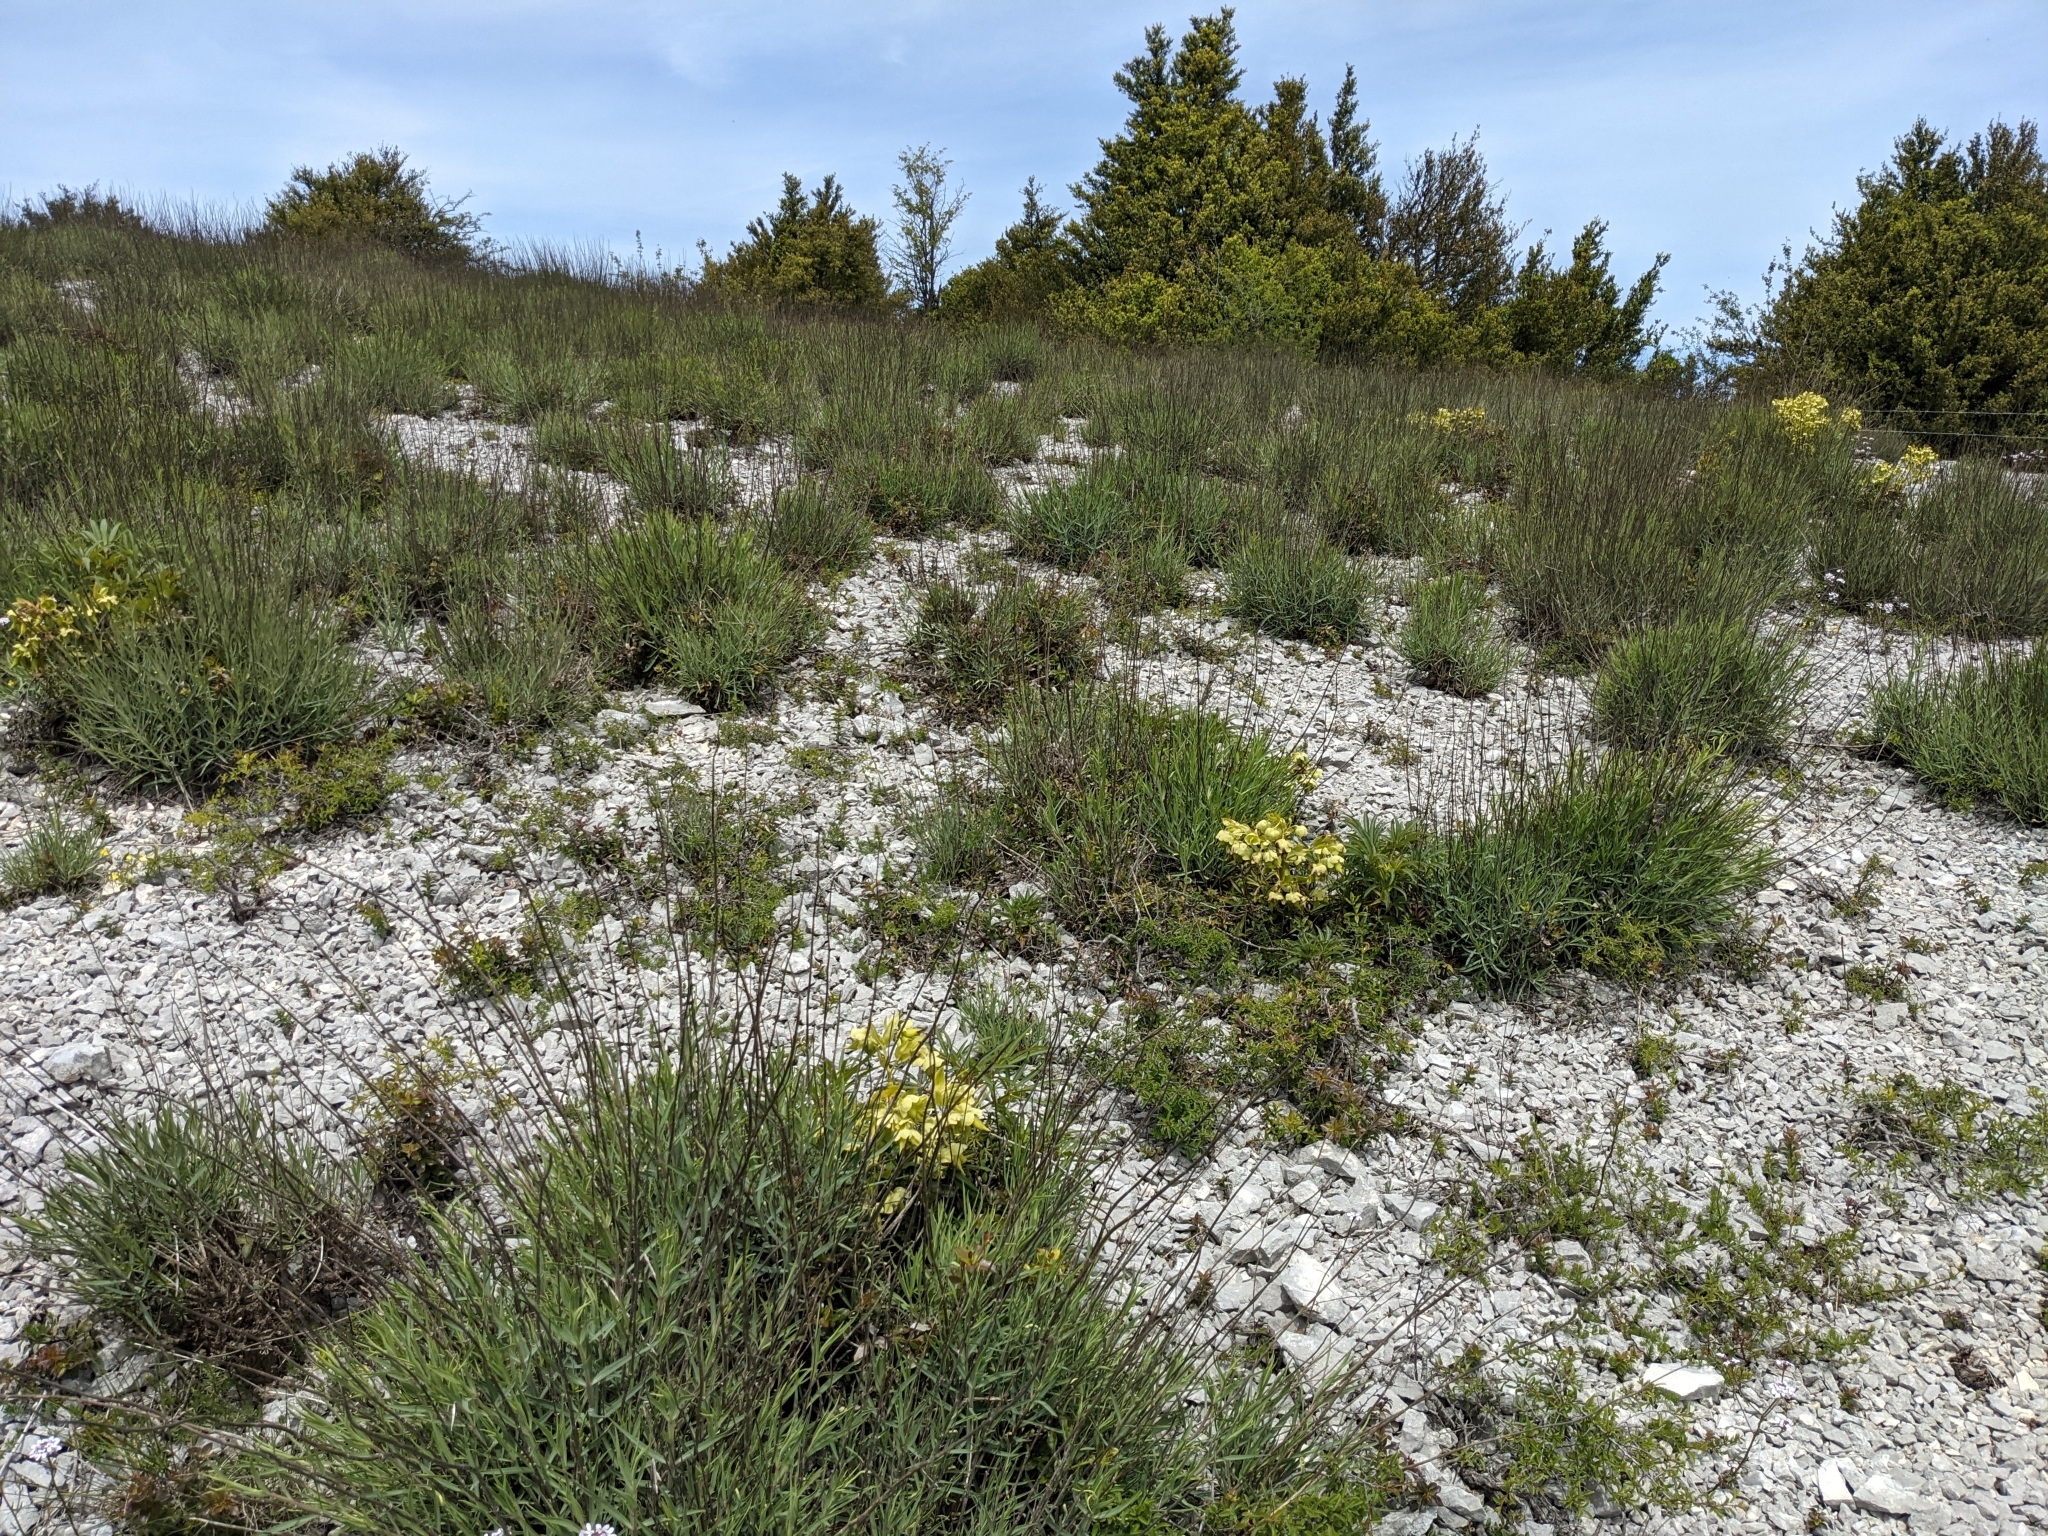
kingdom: Plantae
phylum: Tracheophyta
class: Magnoliopsida
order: Dipsacales
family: Caprifoliaceae
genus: Centranthus
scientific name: Centranthus lecoqii
